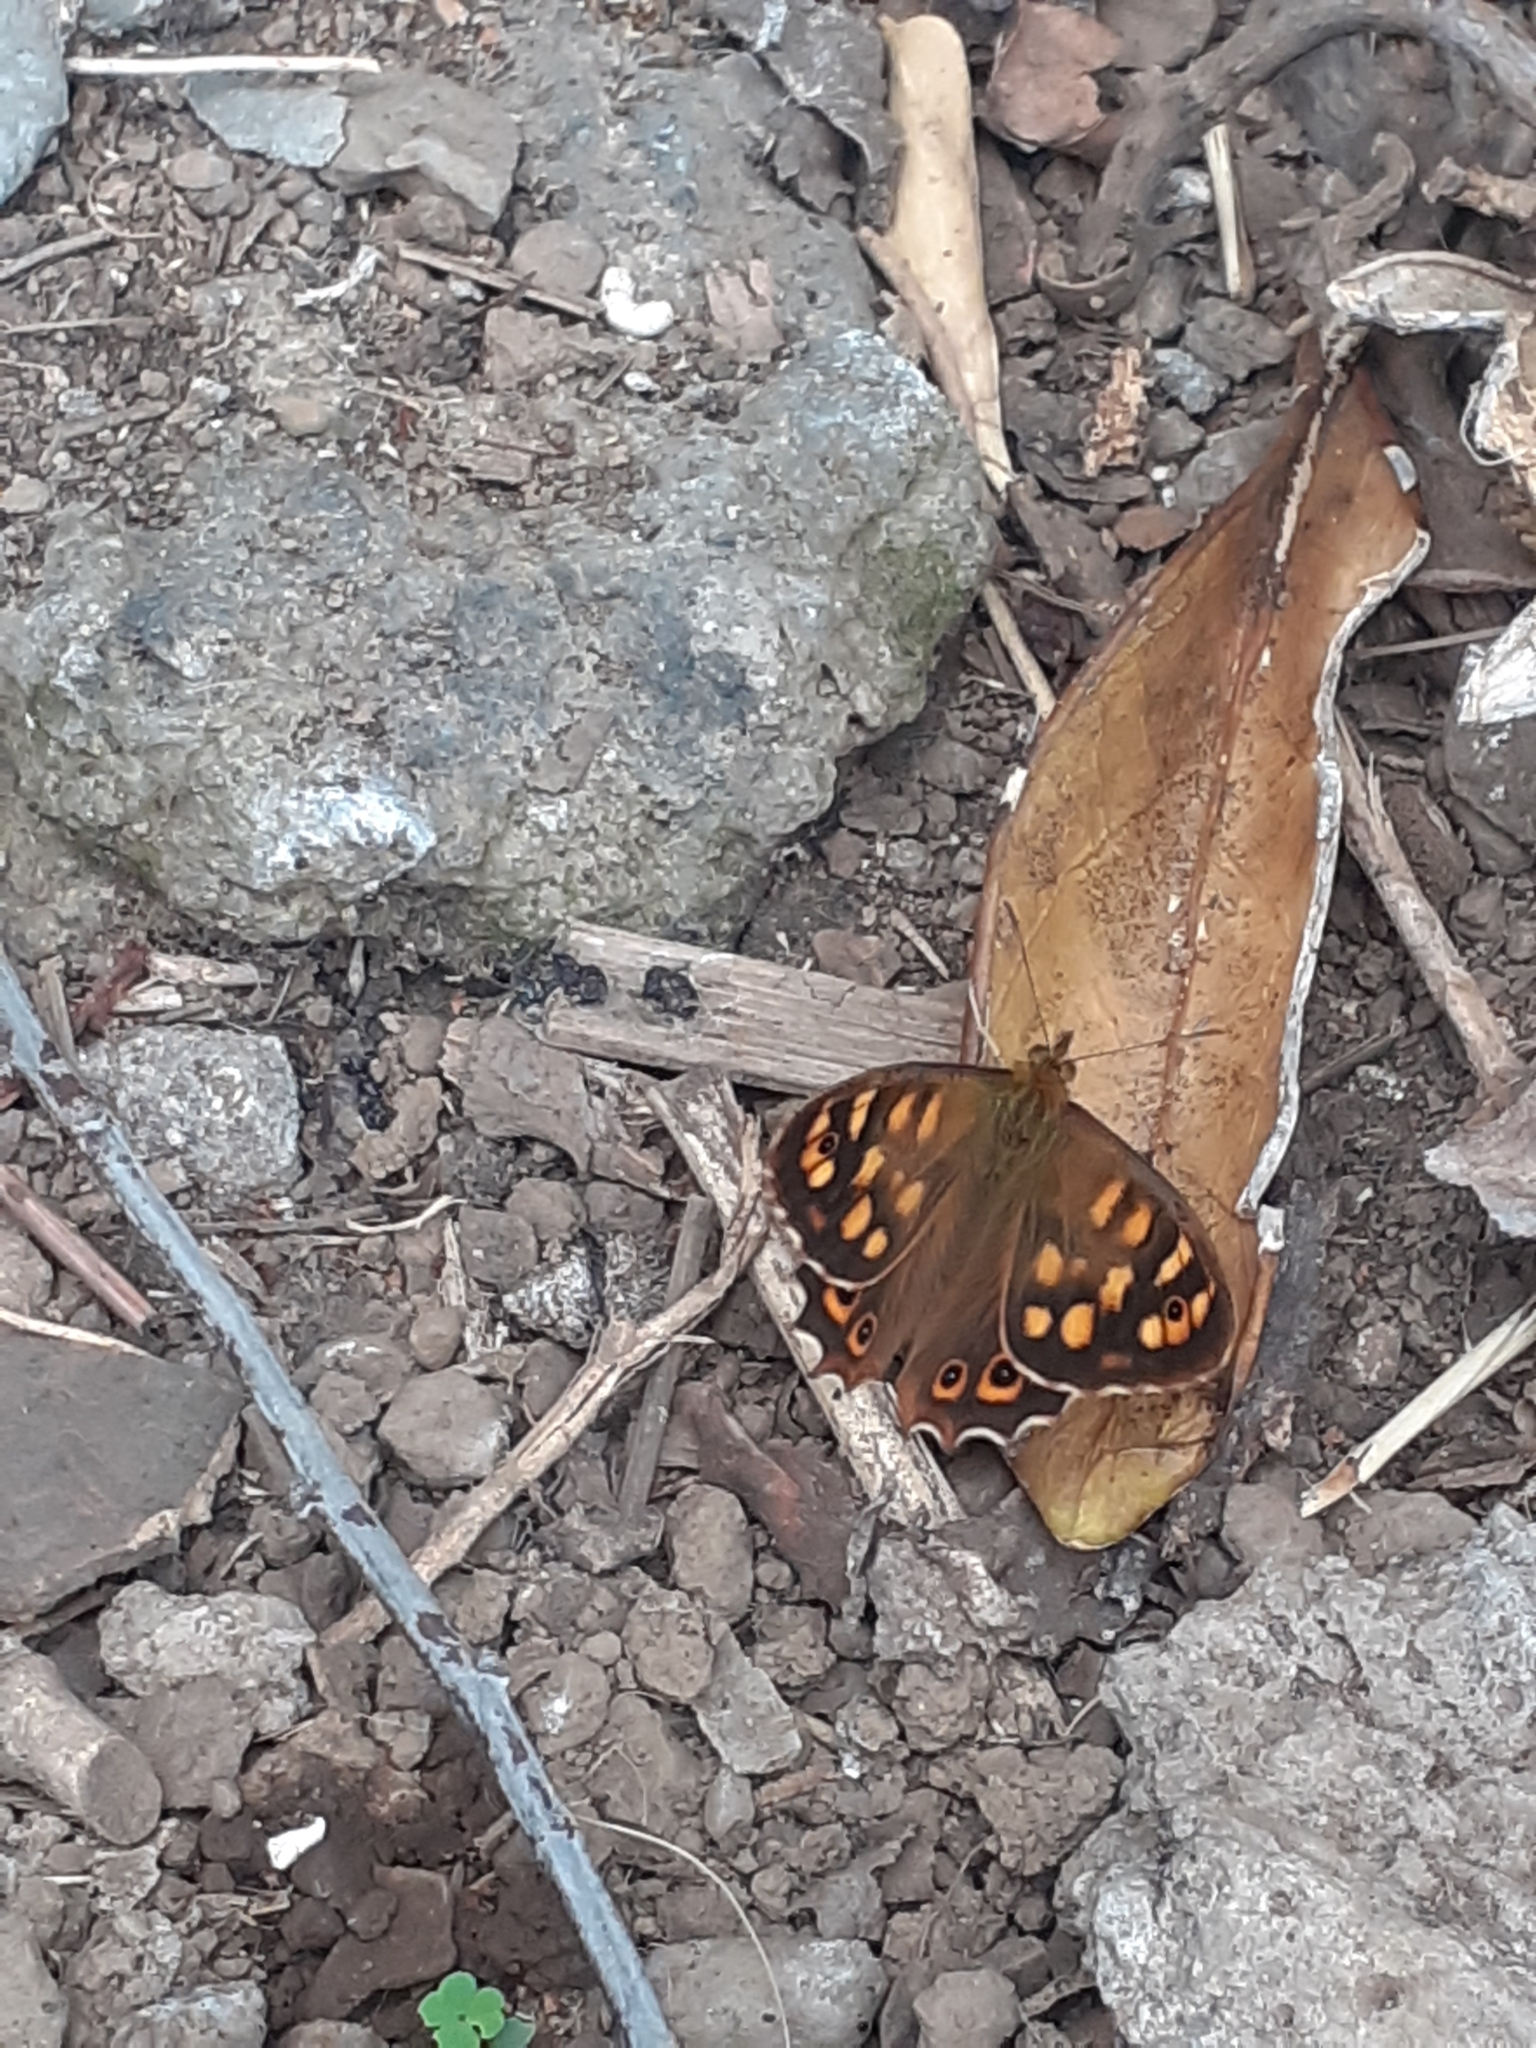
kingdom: Animalia
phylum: Arthropoda
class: Insecta
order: Lepidoptera
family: Nymphalidae
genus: Pararge
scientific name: Pararge aegeria
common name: Speckled wood
